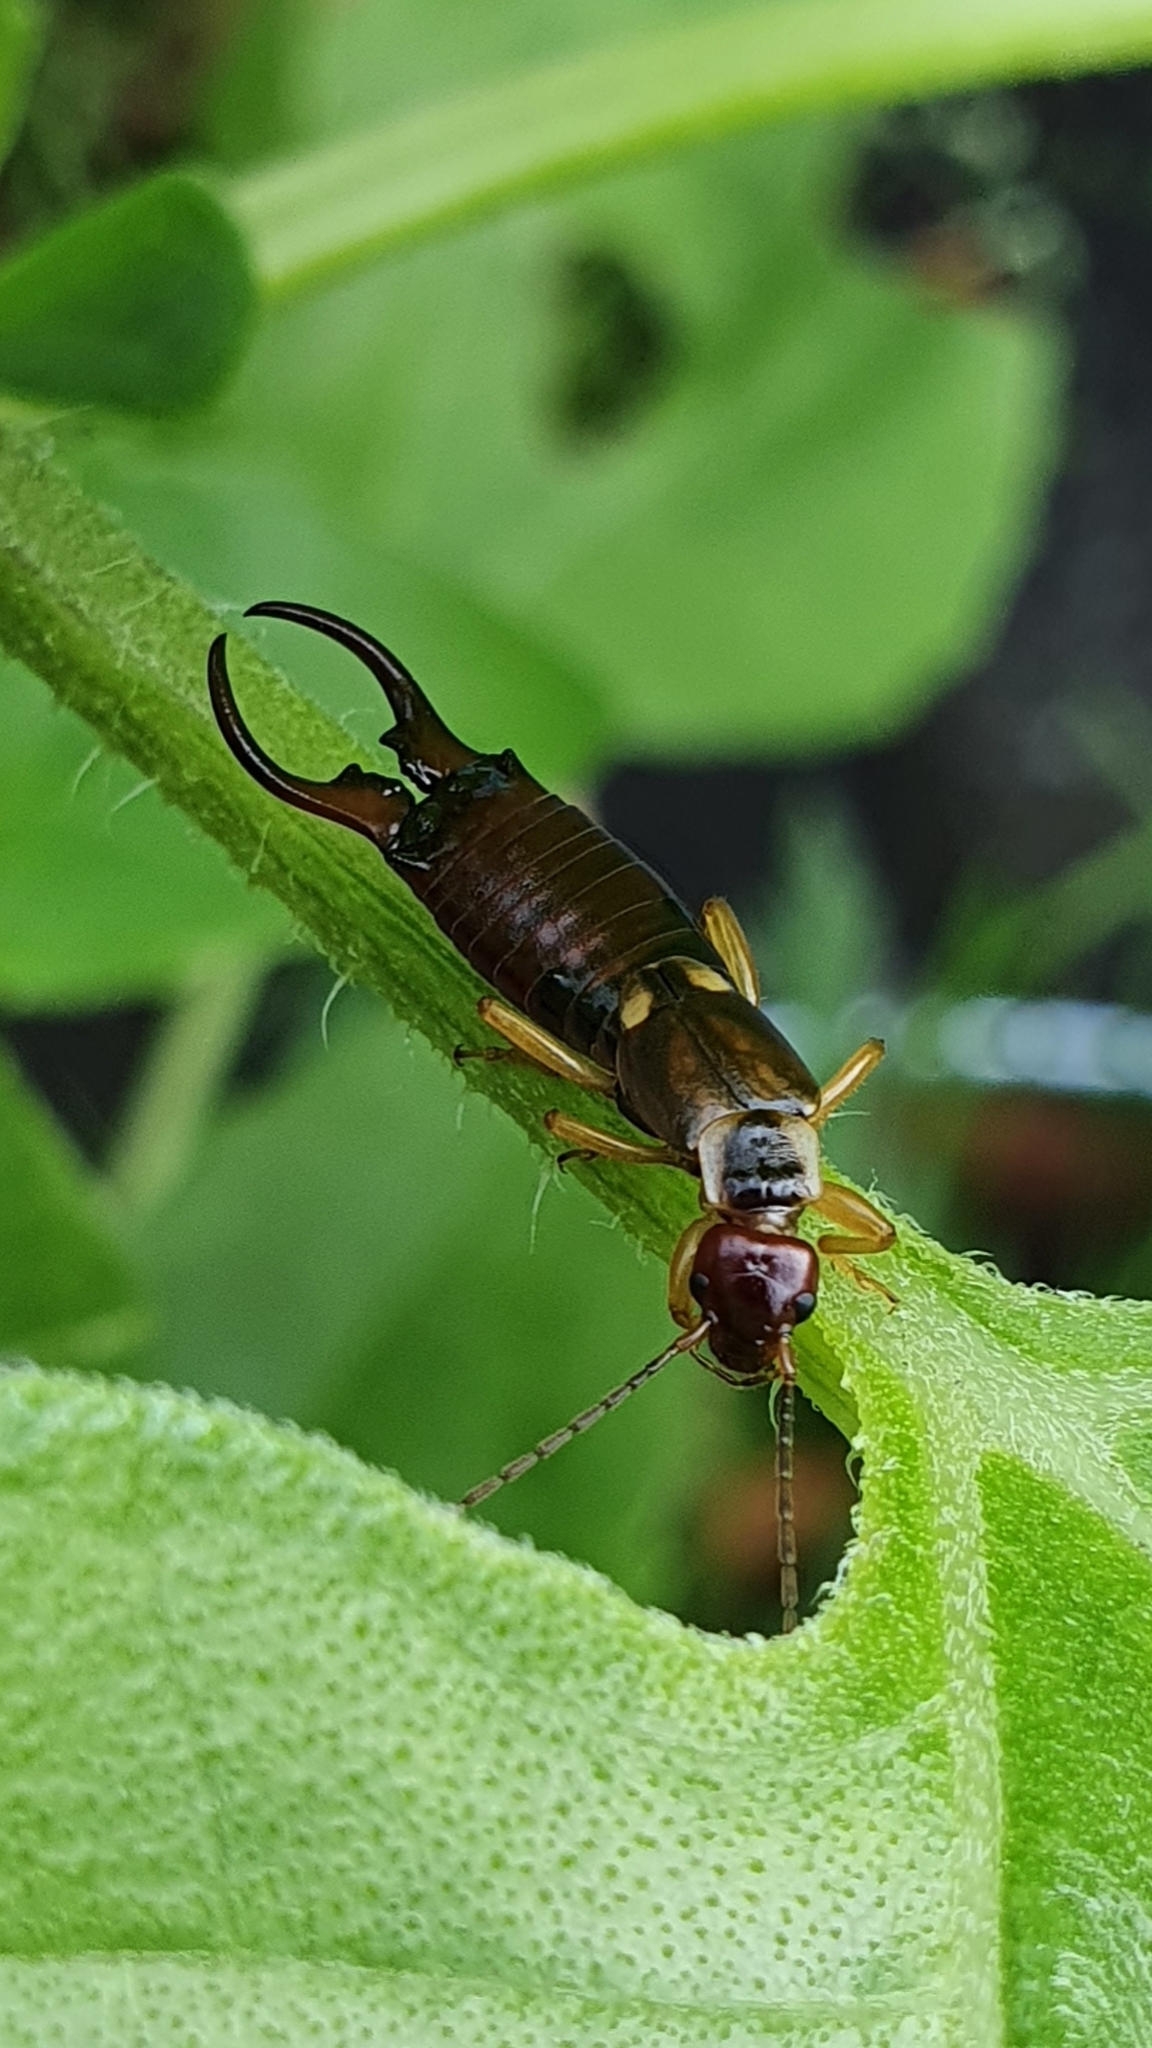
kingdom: Animalia
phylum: Arthropoda
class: Insecta
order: Dermaptera
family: Forficulidae
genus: Forficula
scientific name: Forficula
